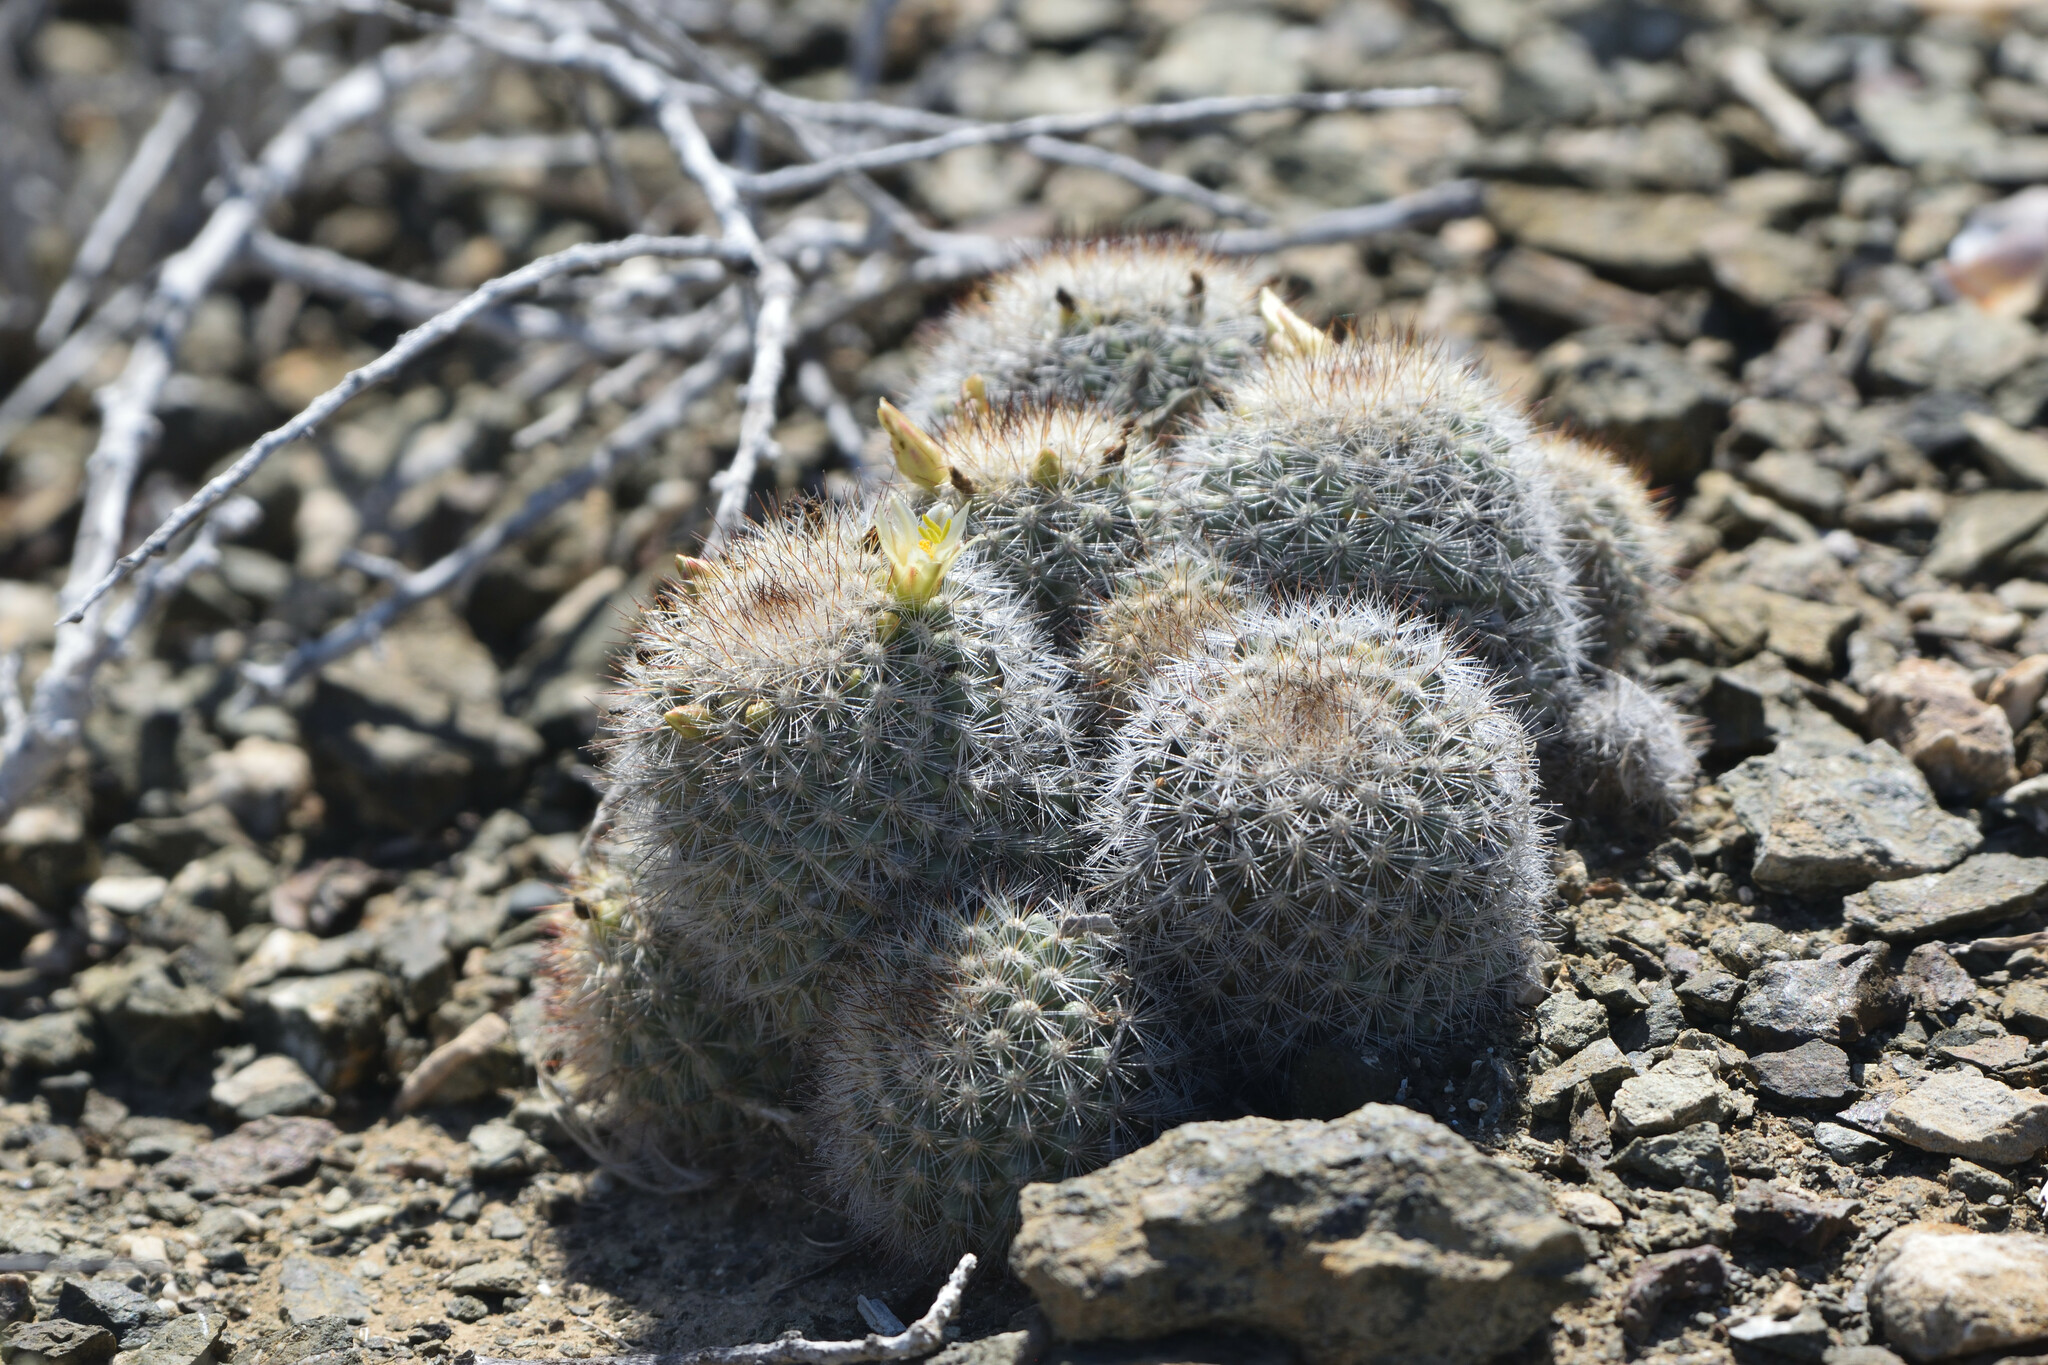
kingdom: Plantae
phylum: Tracheophyta
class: Magnoliopsida
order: Caryophyllales
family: Cactaceae
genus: Cochemiea
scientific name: Cochemiea palmeri
